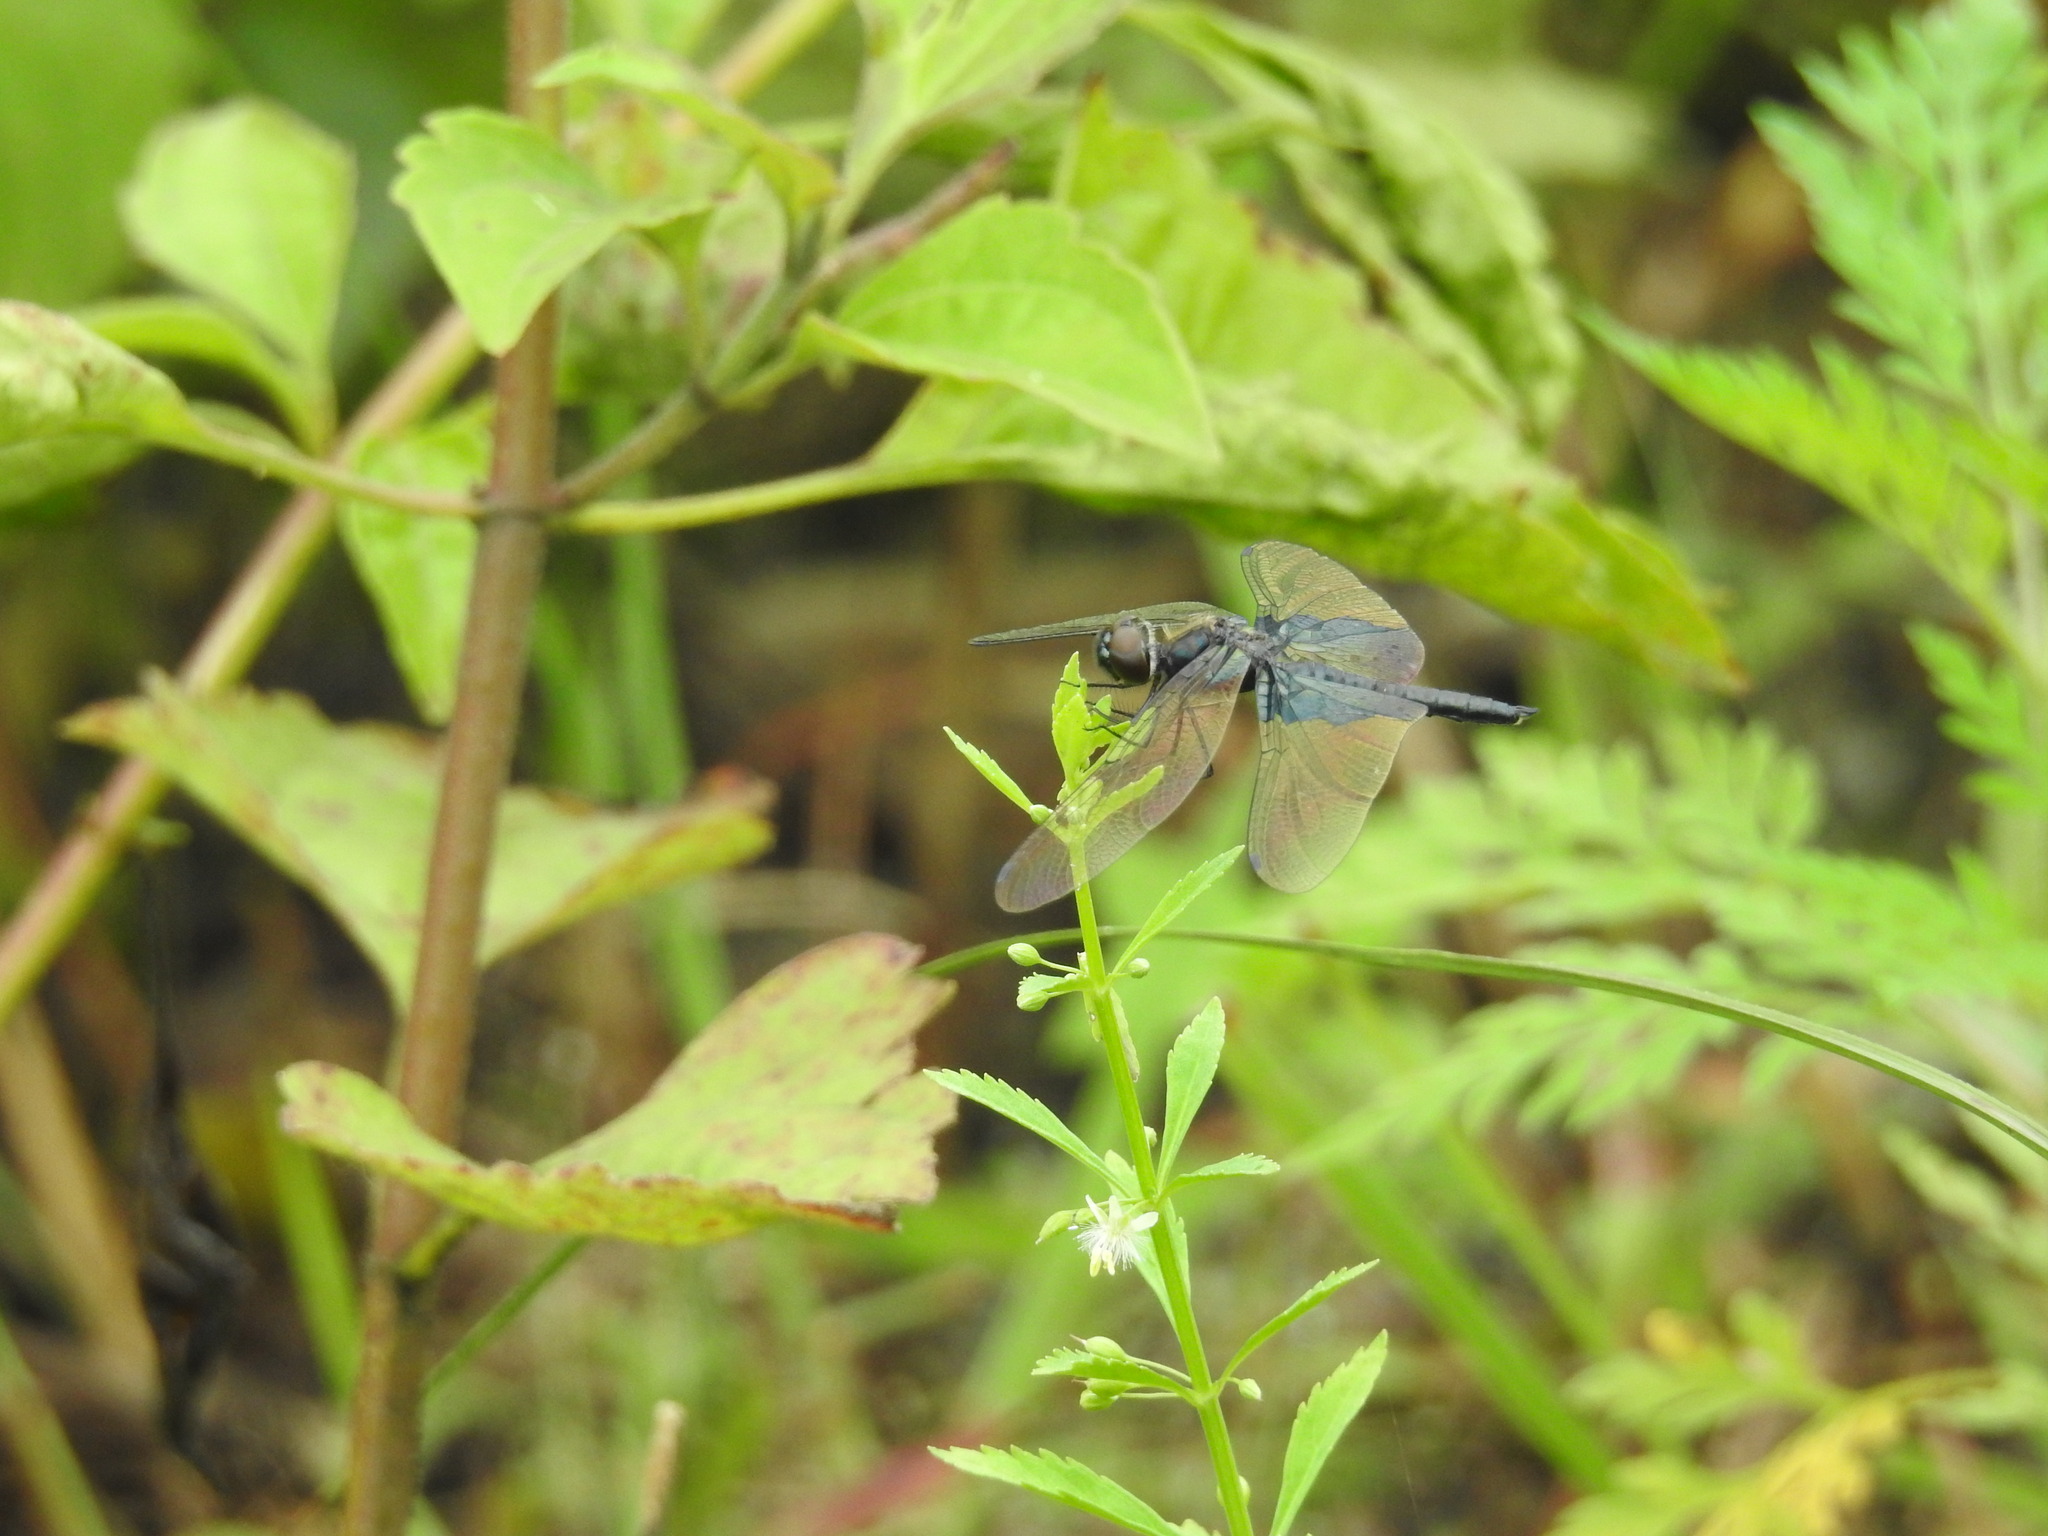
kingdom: Animalia
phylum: Arthropoda
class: Insecta
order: Odonata
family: Libellulidae
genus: Rhyothemis
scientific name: Rhyothemis triangularis
